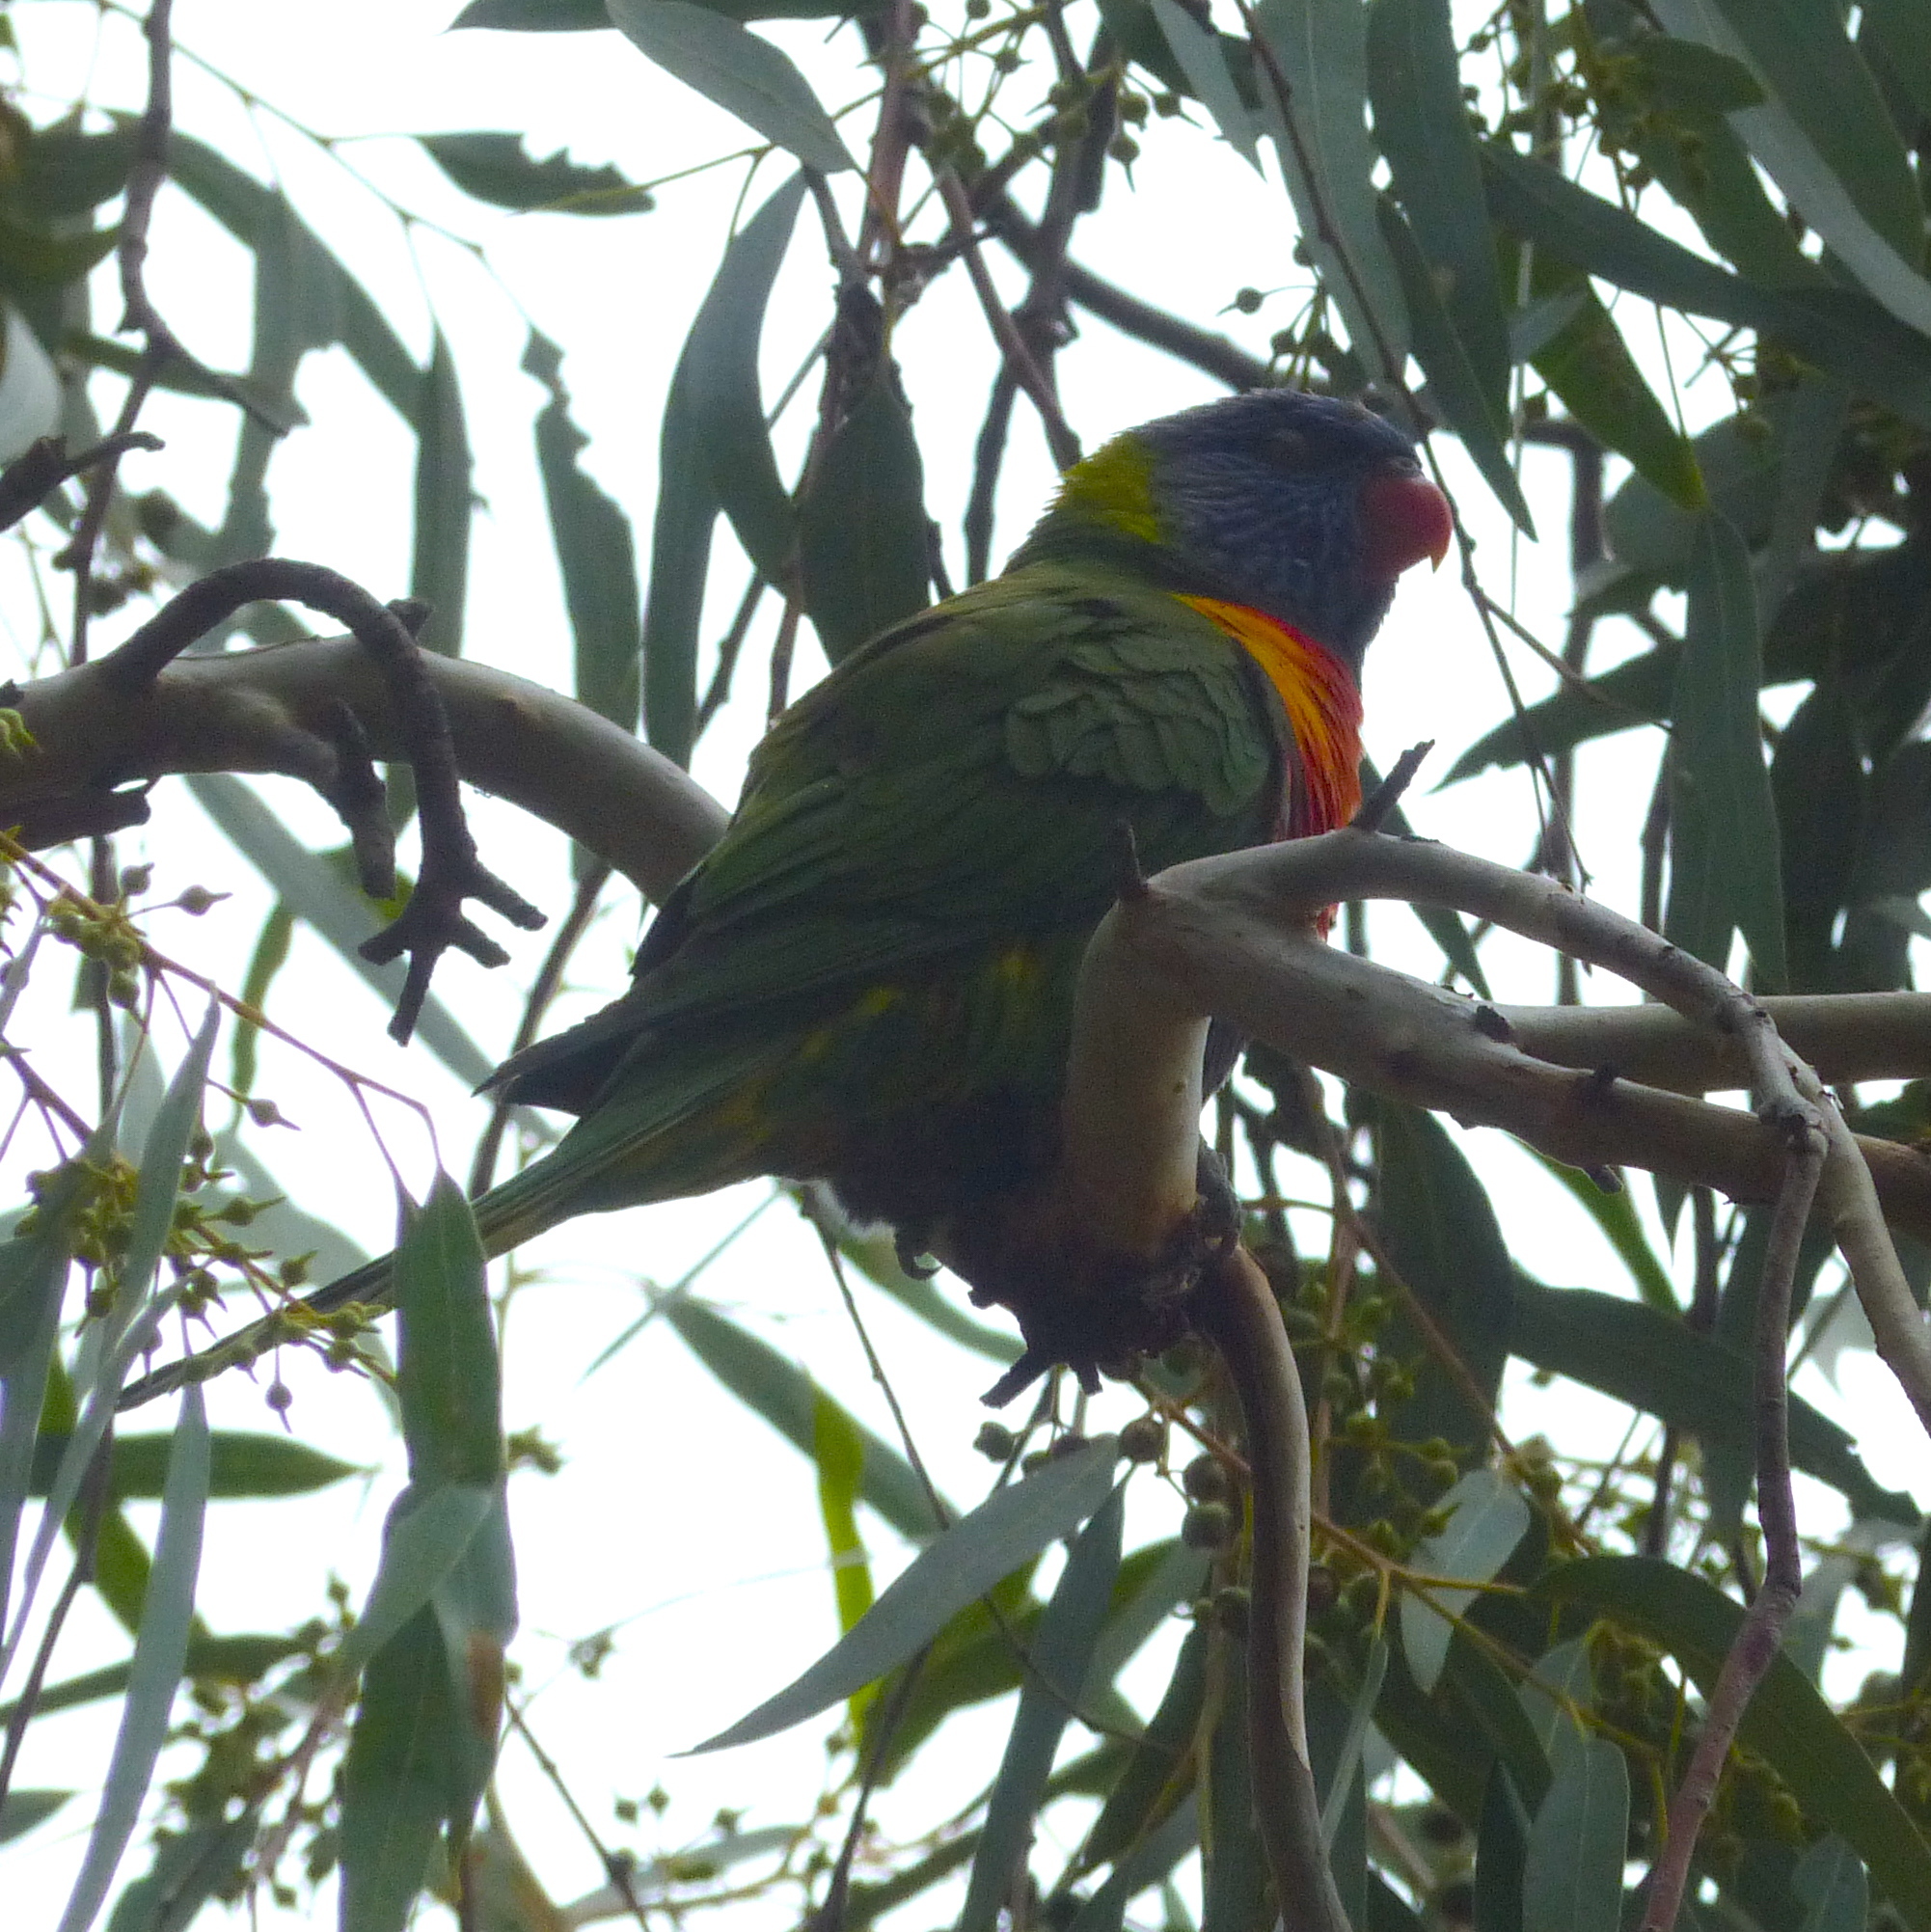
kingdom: Animalia
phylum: Chordata
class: Aves
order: Psittaciformes
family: Psittacidae
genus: Trichoglossus
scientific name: Trichoglossus haematodus
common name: Coconut lorikeet
